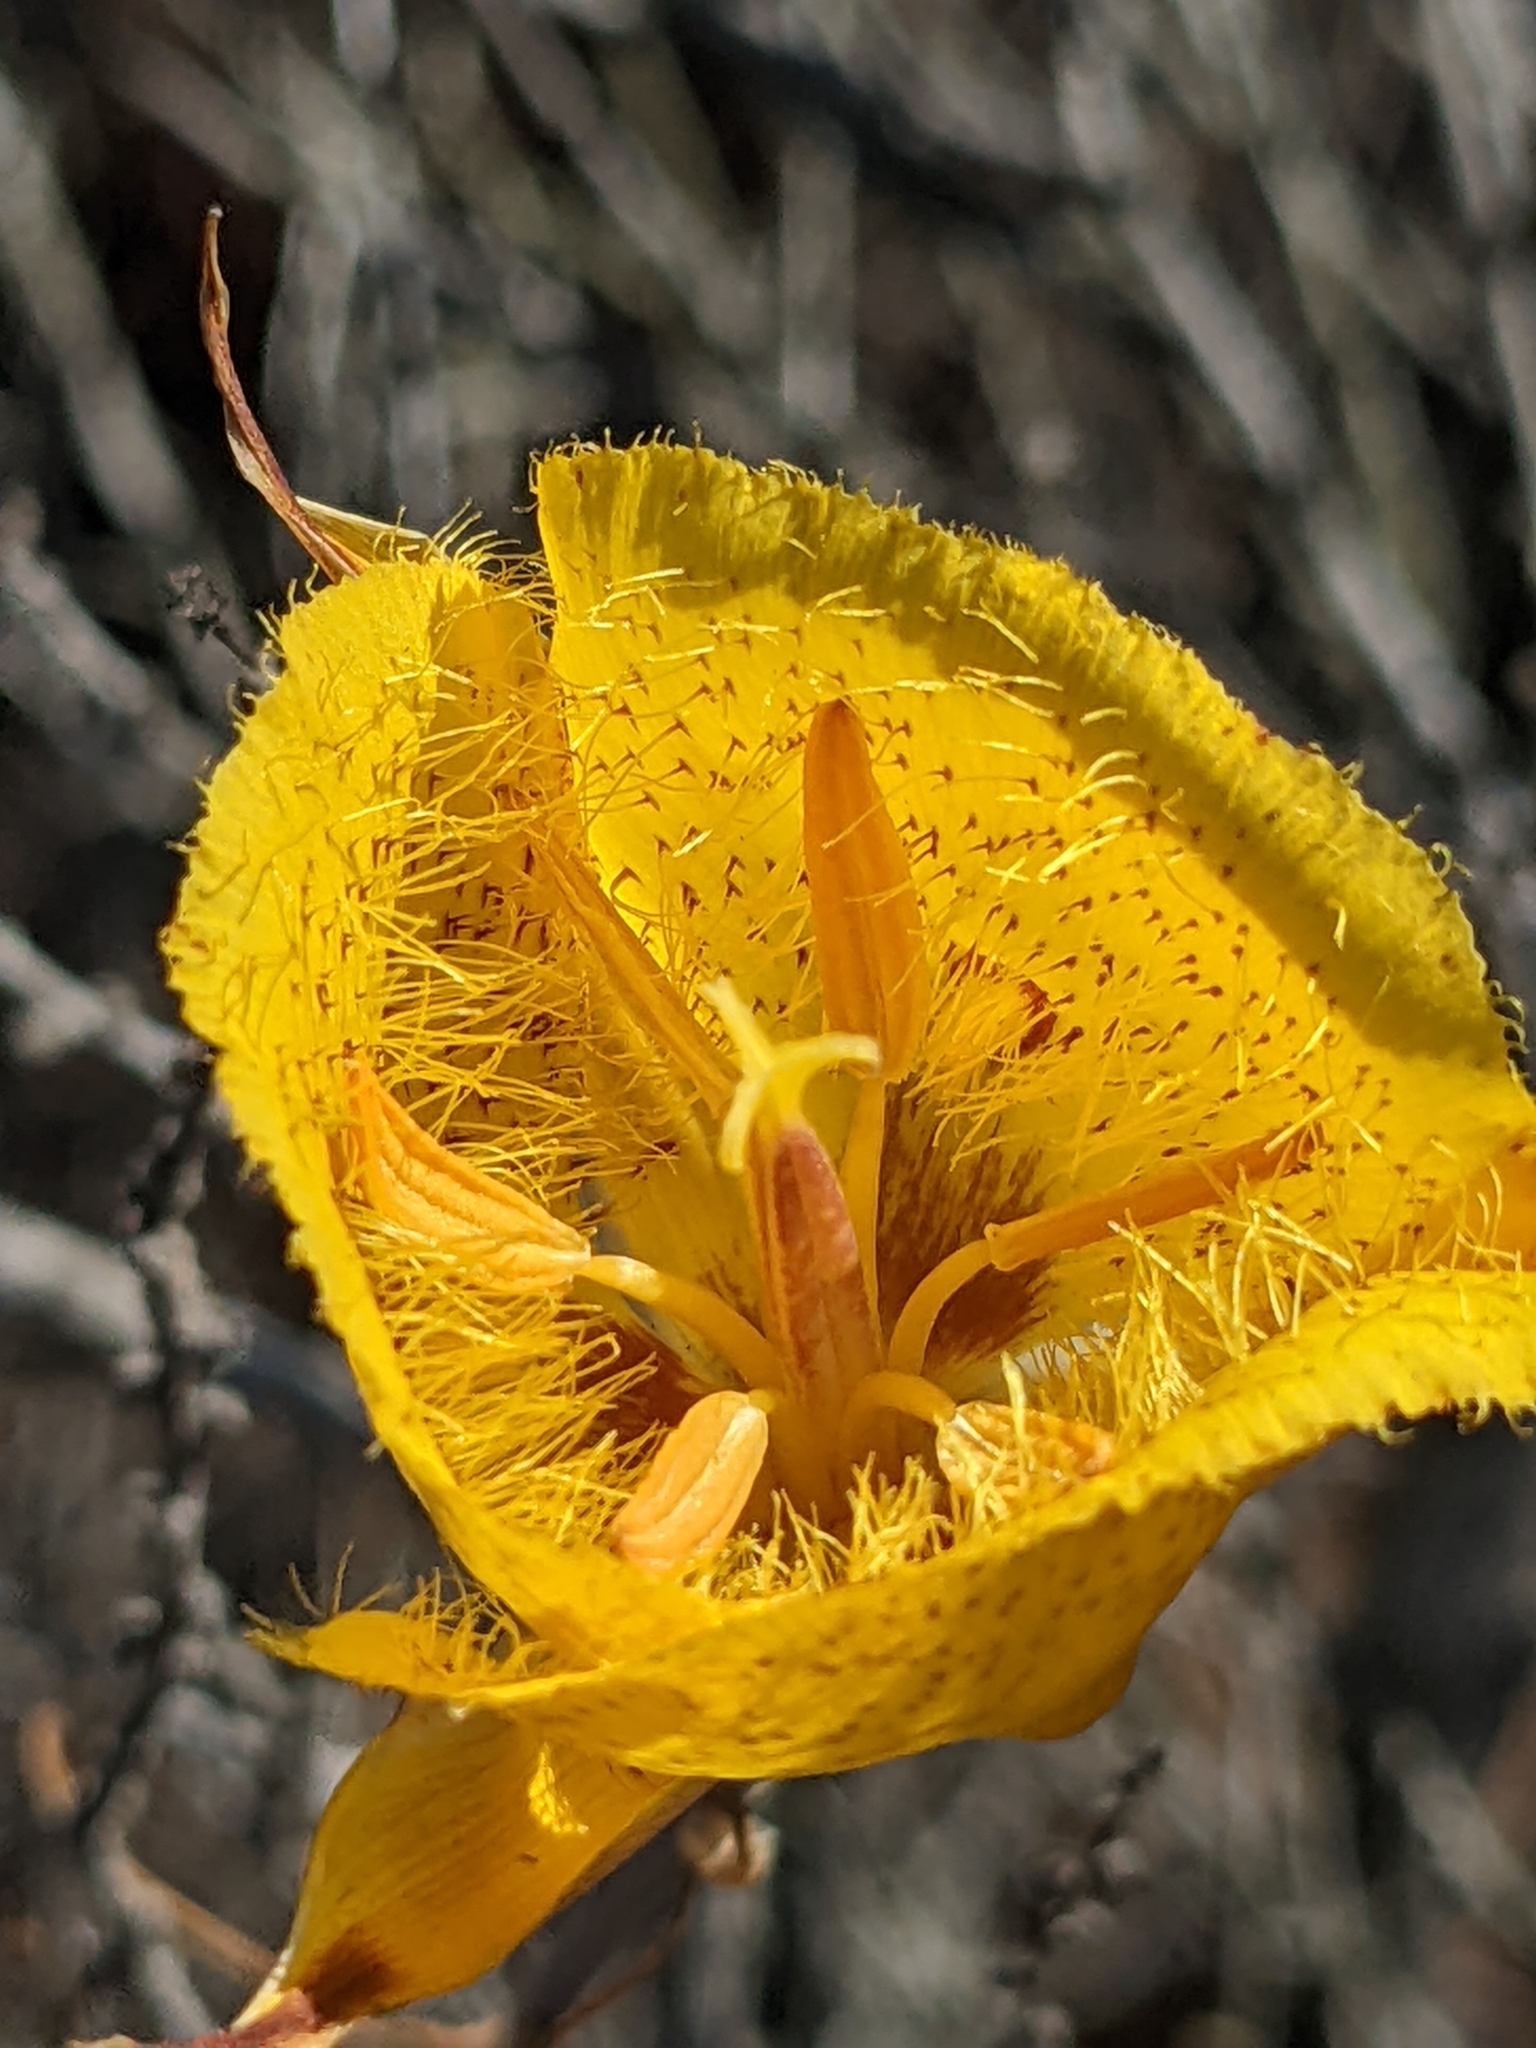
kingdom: Plantae
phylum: Tracheophyta
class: Liliopsida
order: Liliales
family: Liliaceae
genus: Calochortus
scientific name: Calochortus weedii
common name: Weed's mariposa-lily
